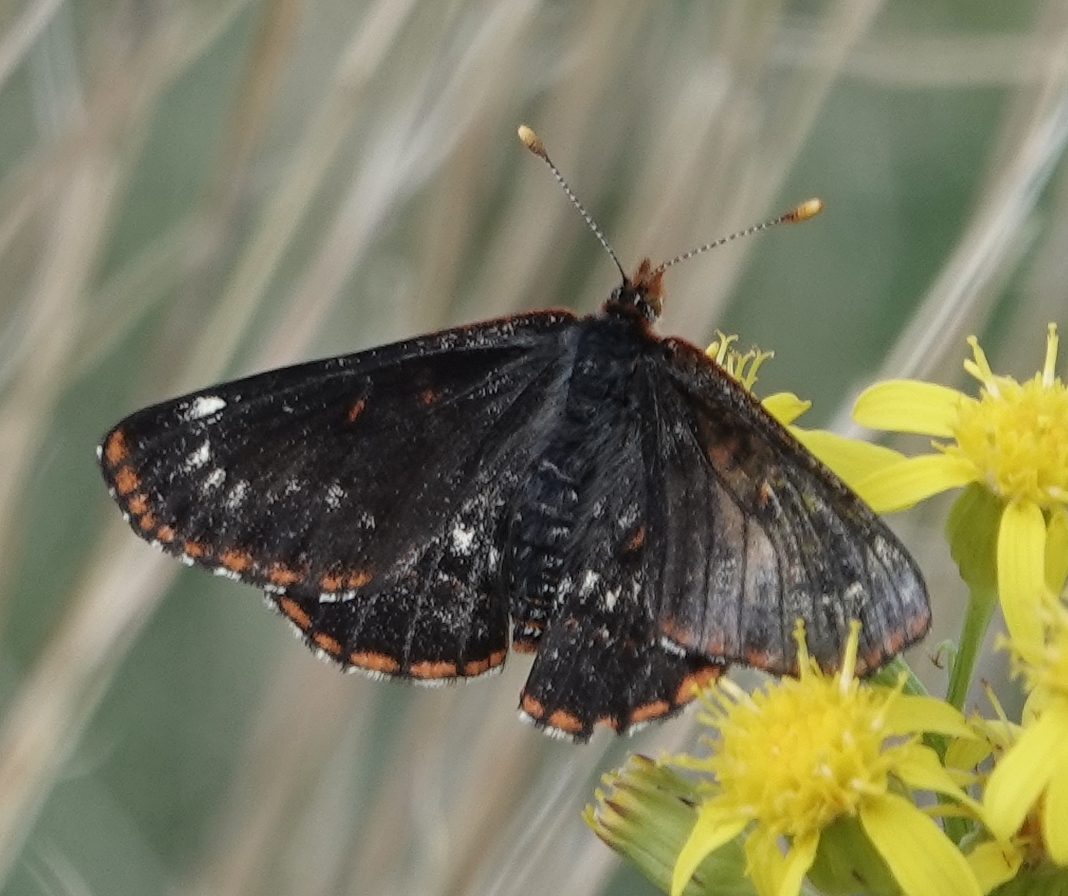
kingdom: Animalia
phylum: Arthropoda
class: Insecta
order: Lepidoptera
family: Nymphalidae
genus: Occidryas
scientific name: Occidryas anicia
